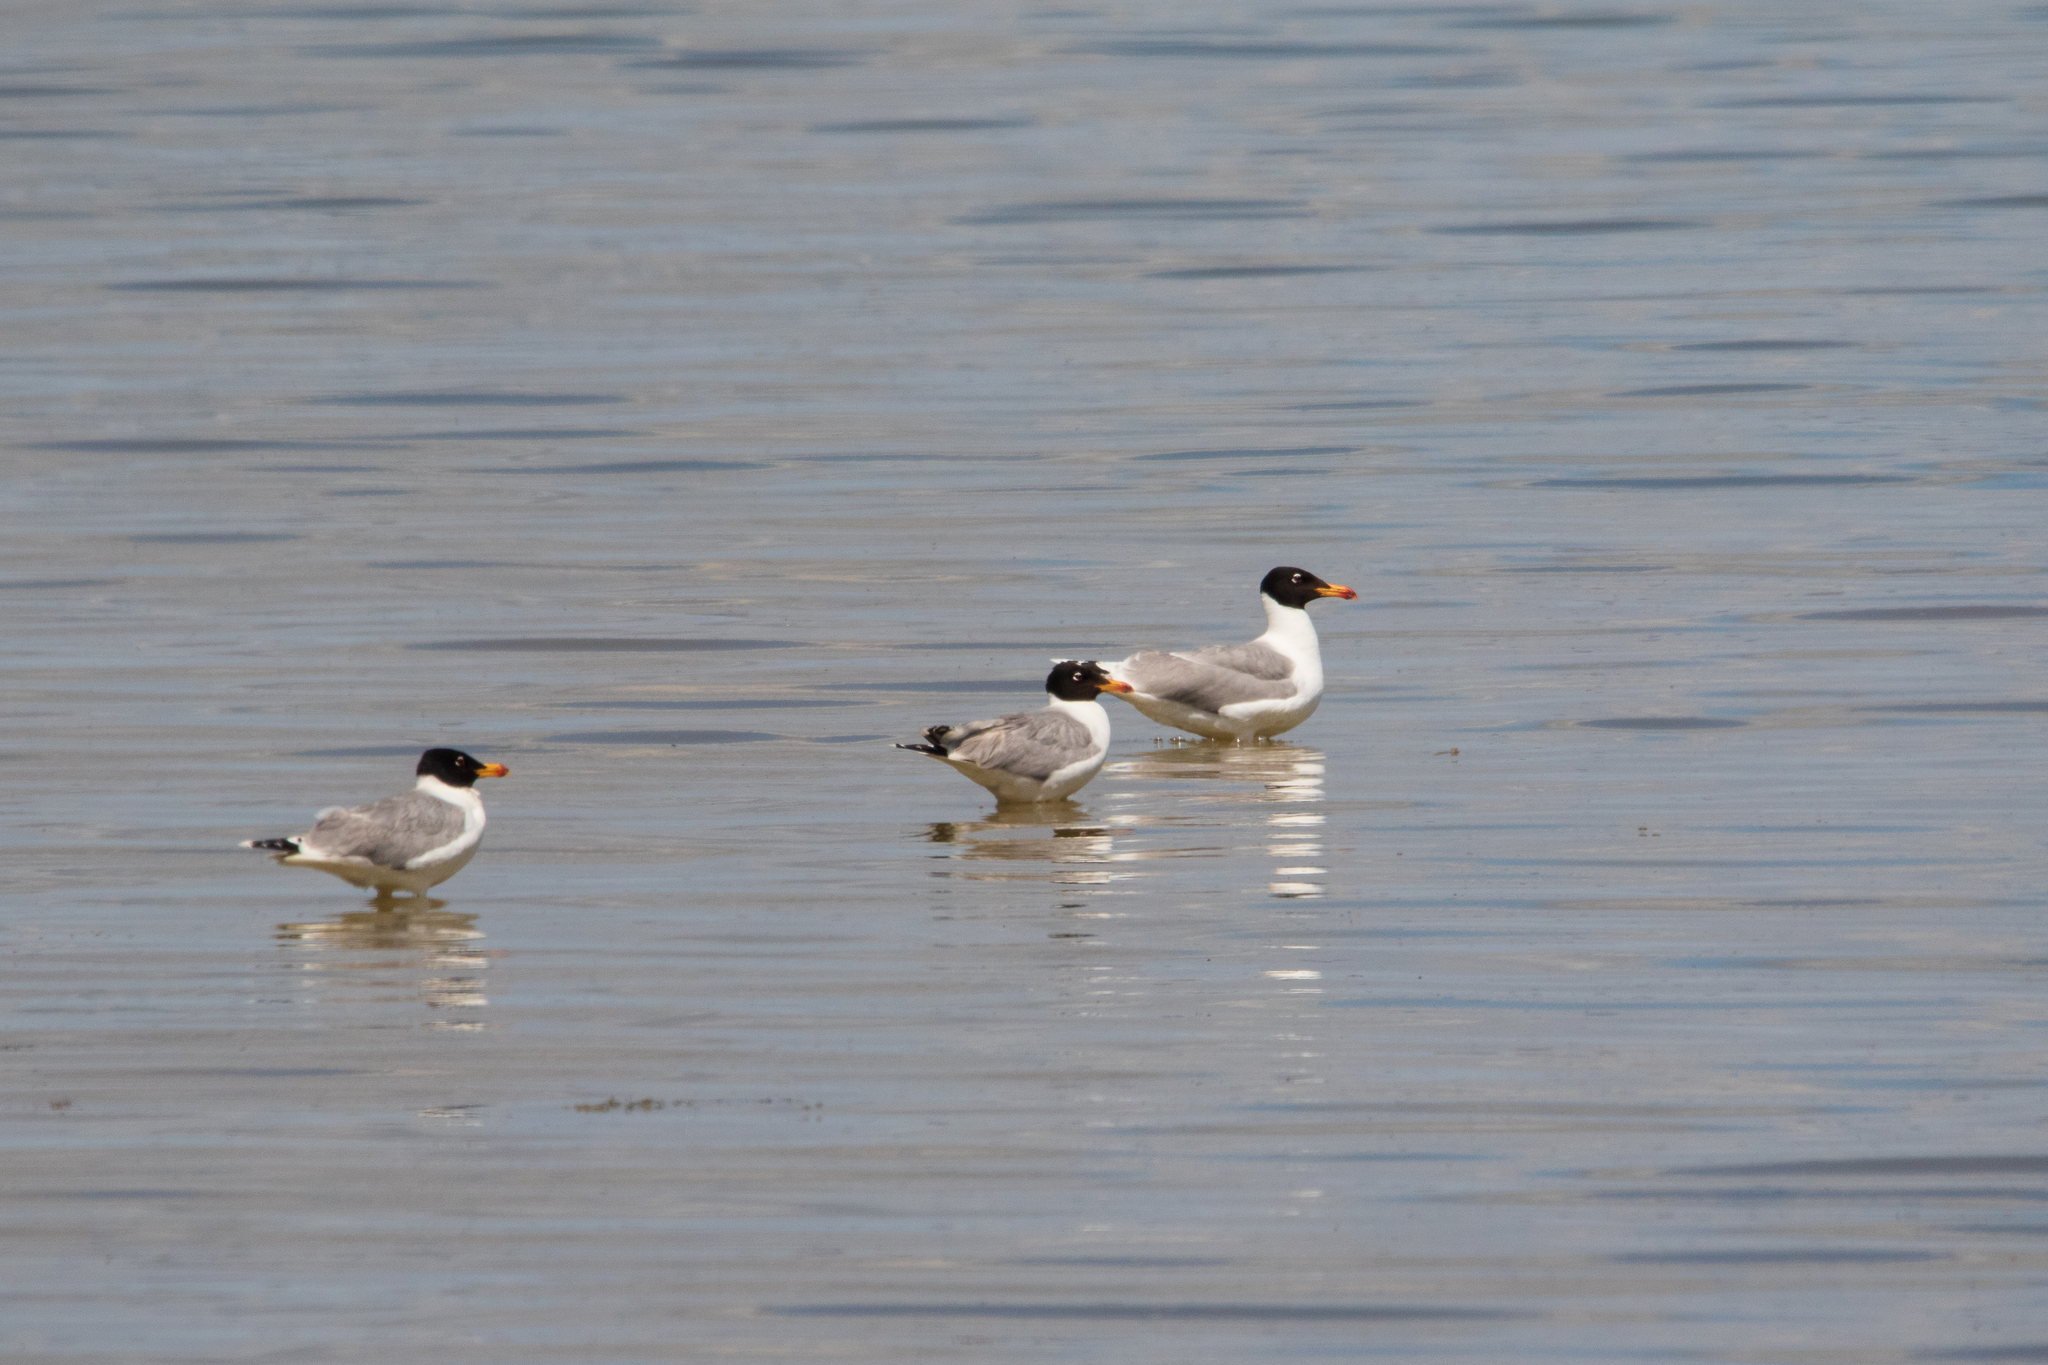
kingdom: Animalia
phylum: Chordata
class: Aves
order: Charadriiformes
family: Laridae
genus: Ichthyaetus
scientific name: Ichthyaetus ichthyaetus
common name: Pallas's gull
